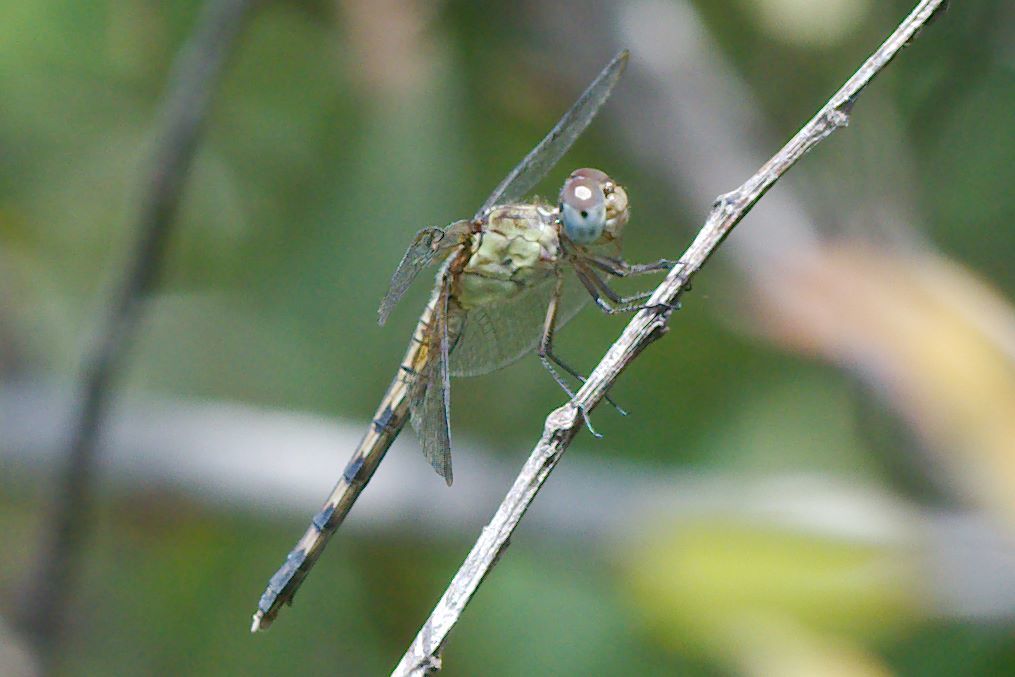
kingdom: Animalia
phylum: Arthropoda
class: Insecta
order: Odonata
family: Libellulidae
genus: Erythrodiplax
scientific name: Erythrodiplax umbrata
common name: Band-winged dragonlet
